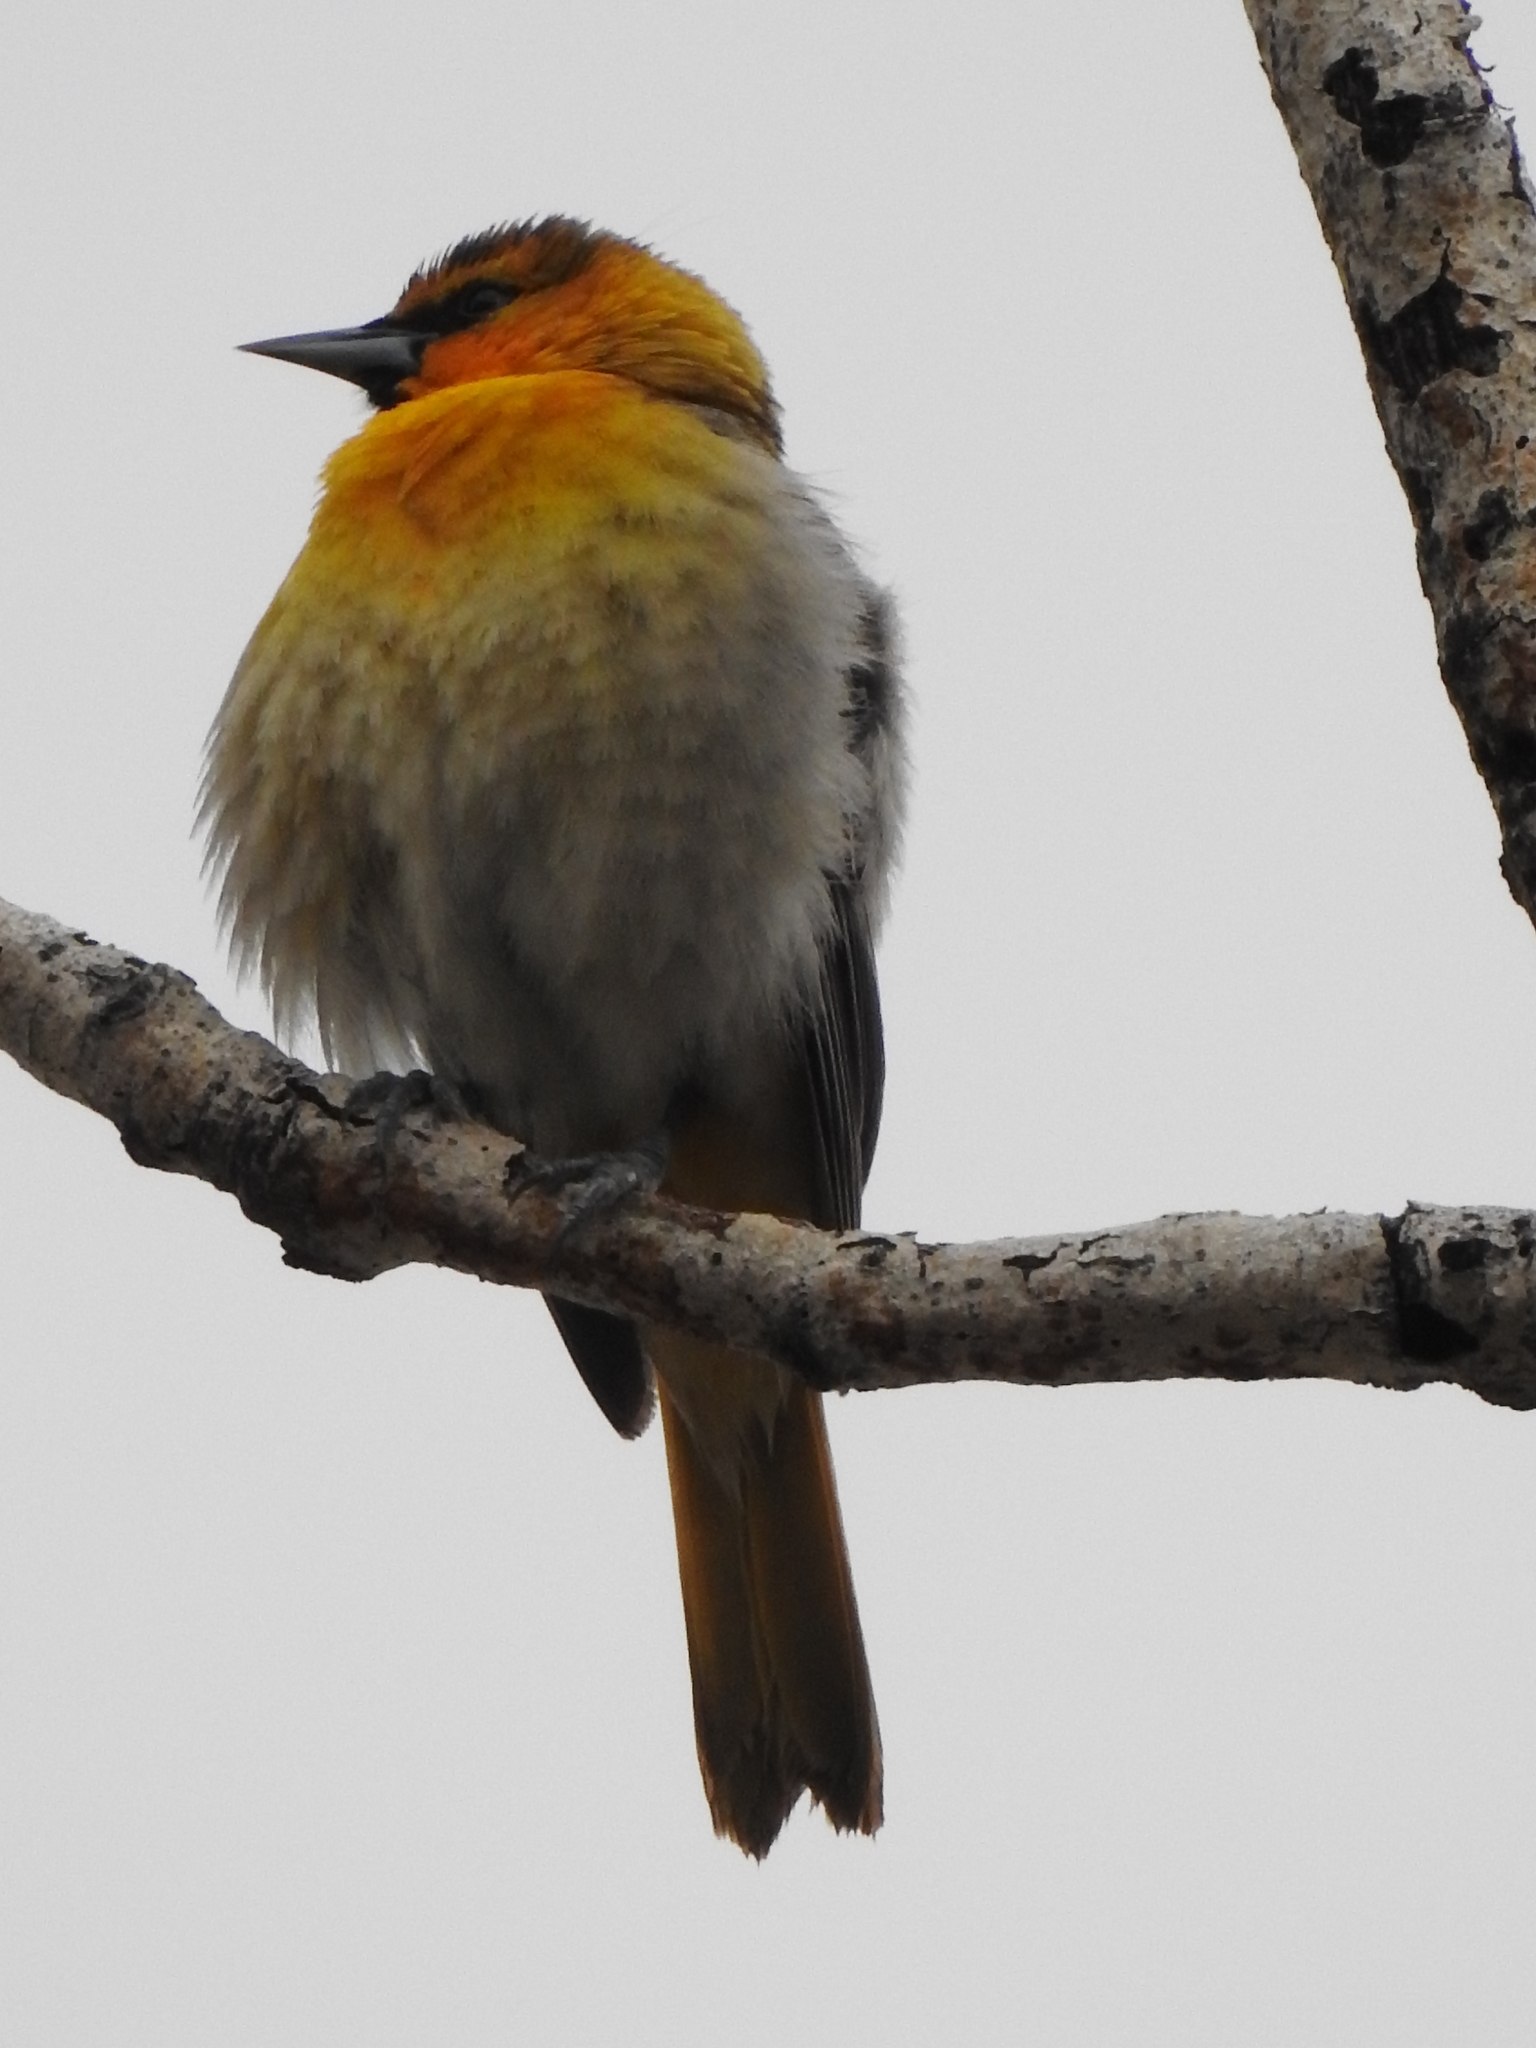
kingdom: Animalia
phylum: Chordata
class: Aves
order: Passeriformes
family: Icteridae
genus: Icterus
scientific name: Icterus bullockii
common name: Bullock's oriole
